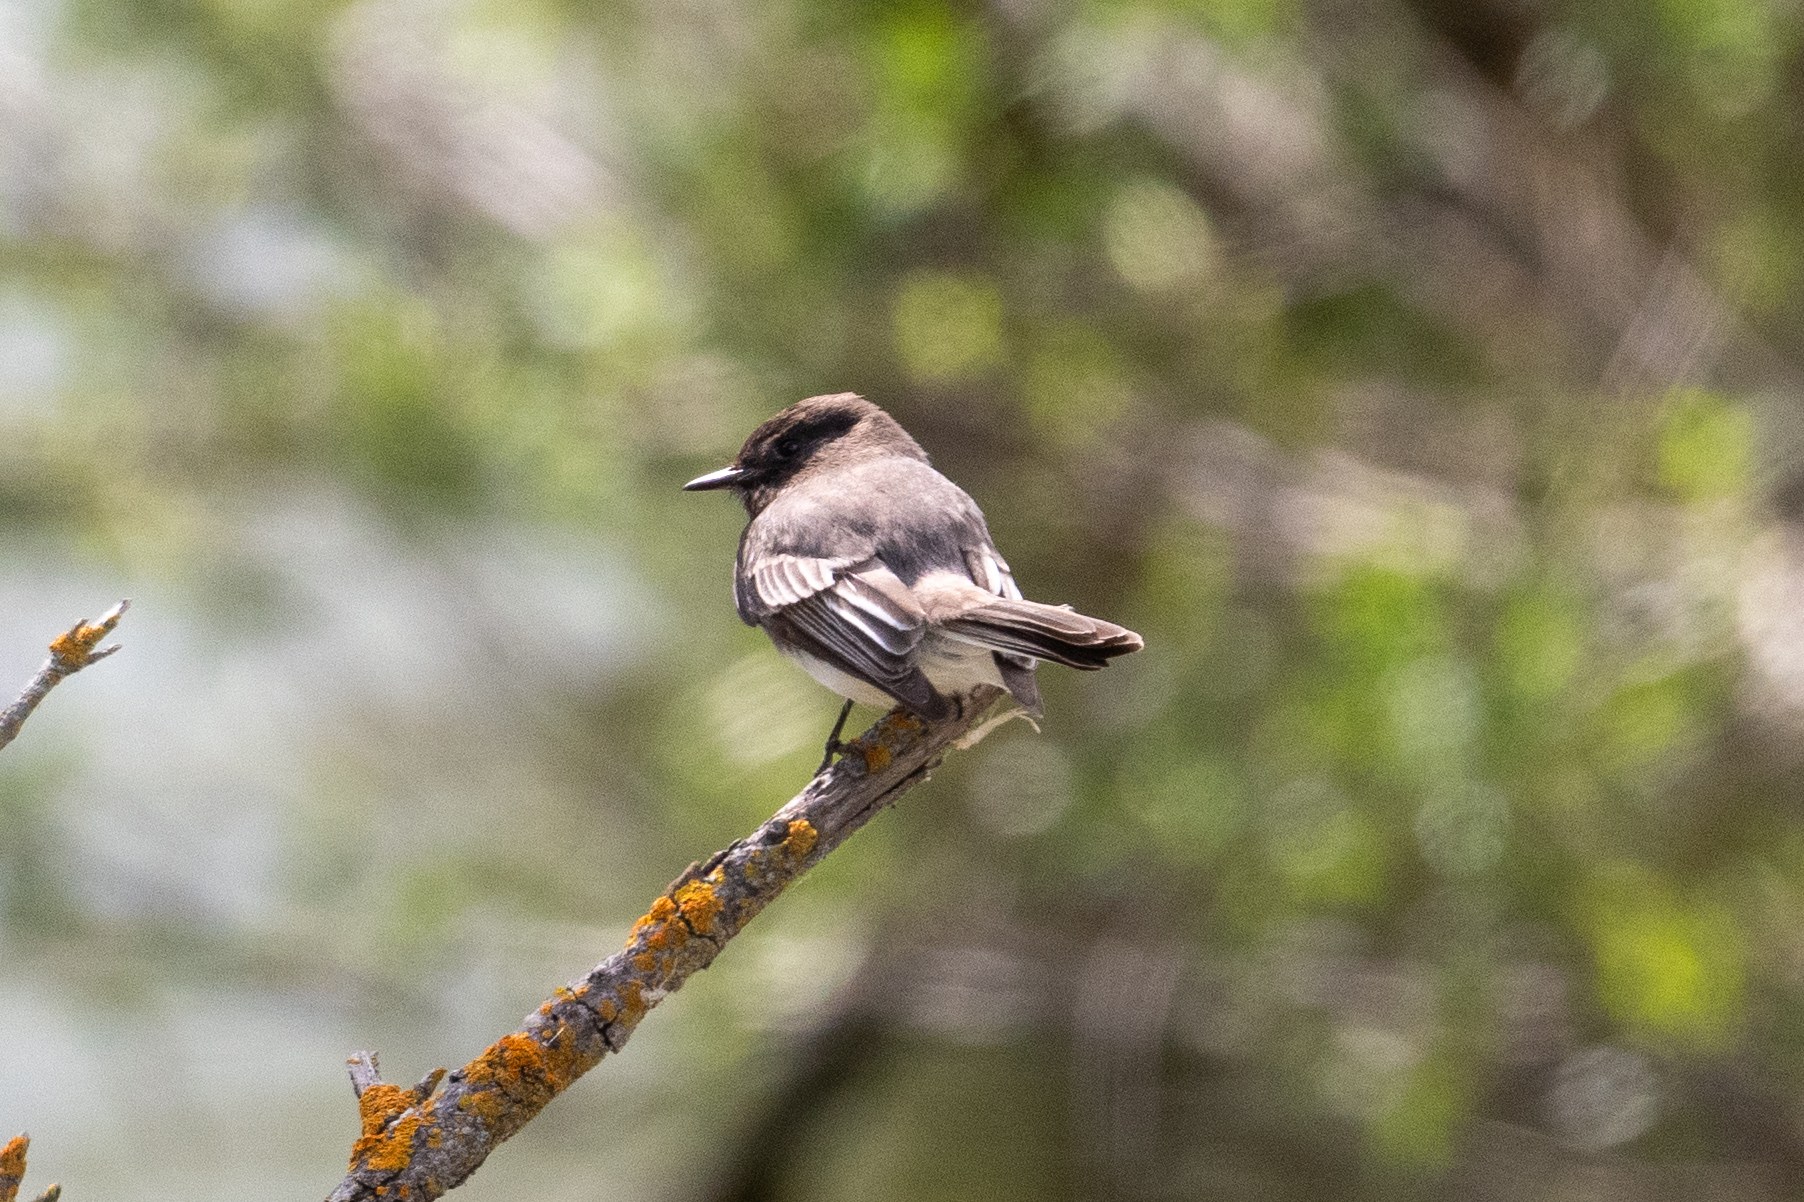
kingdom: Animalia
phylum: Chordata
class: Aves
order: Passeriformes
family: Tyrannidae
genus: Sayornis
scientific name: Sayornis nigricans
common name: Black phoebe
